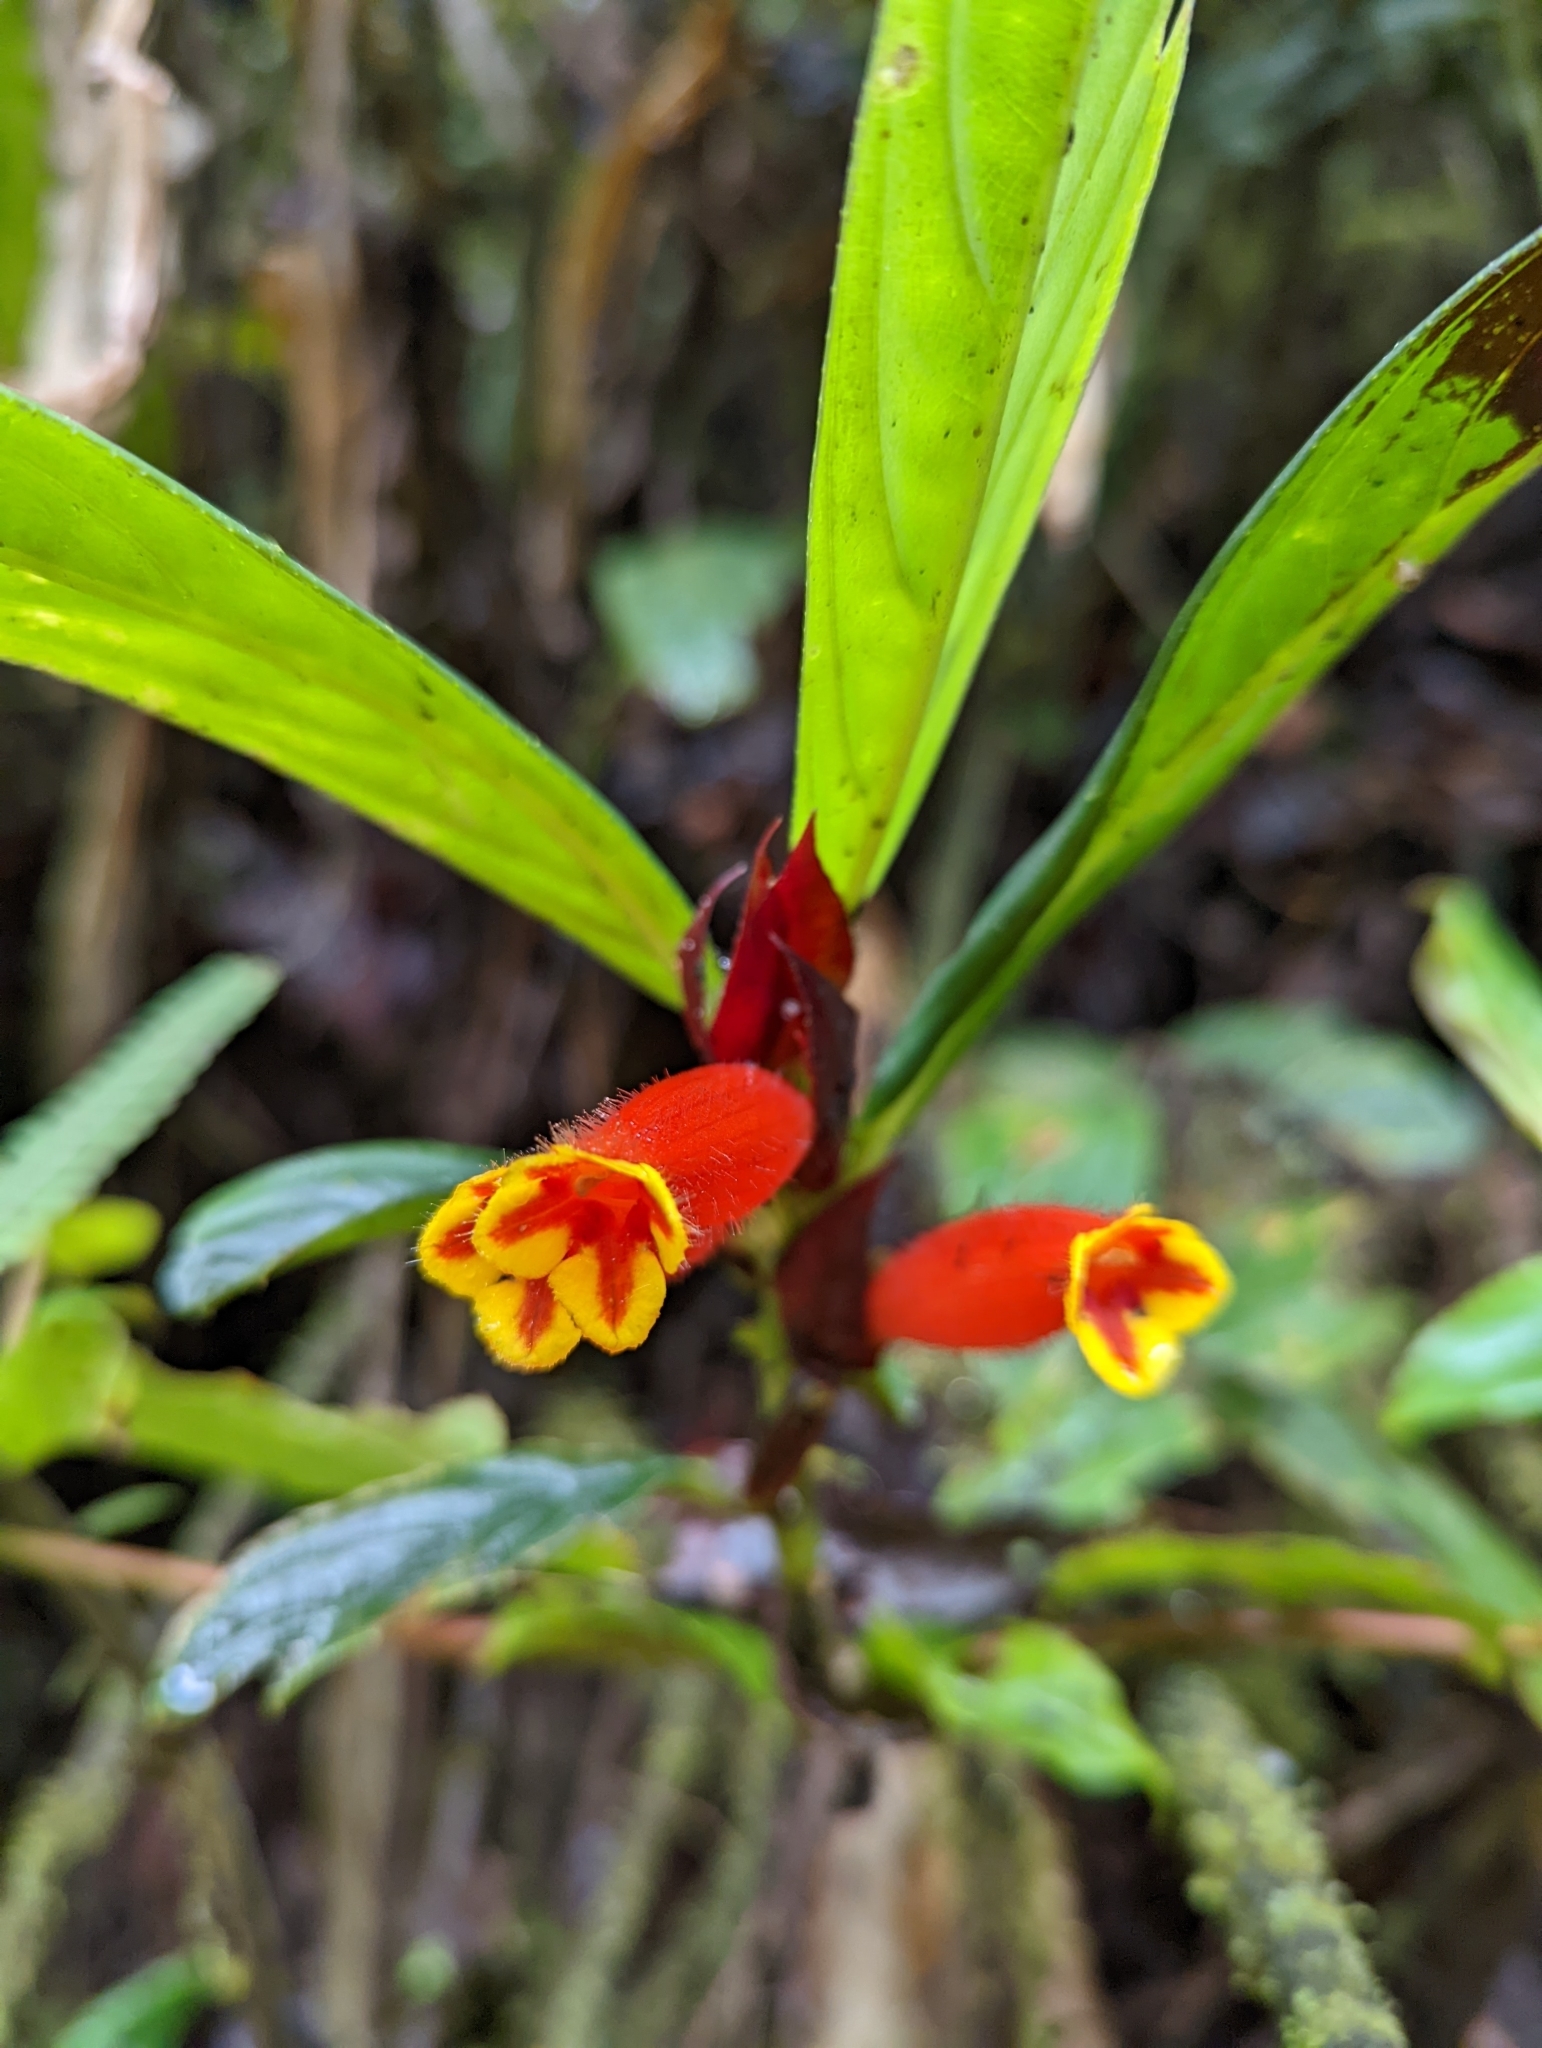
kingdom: Plantae
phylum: Tracheophyta
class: Magnoliopsida
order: Lamiales
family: Gesneriaceae
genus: Columnea
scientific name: Columnea dimidiata
